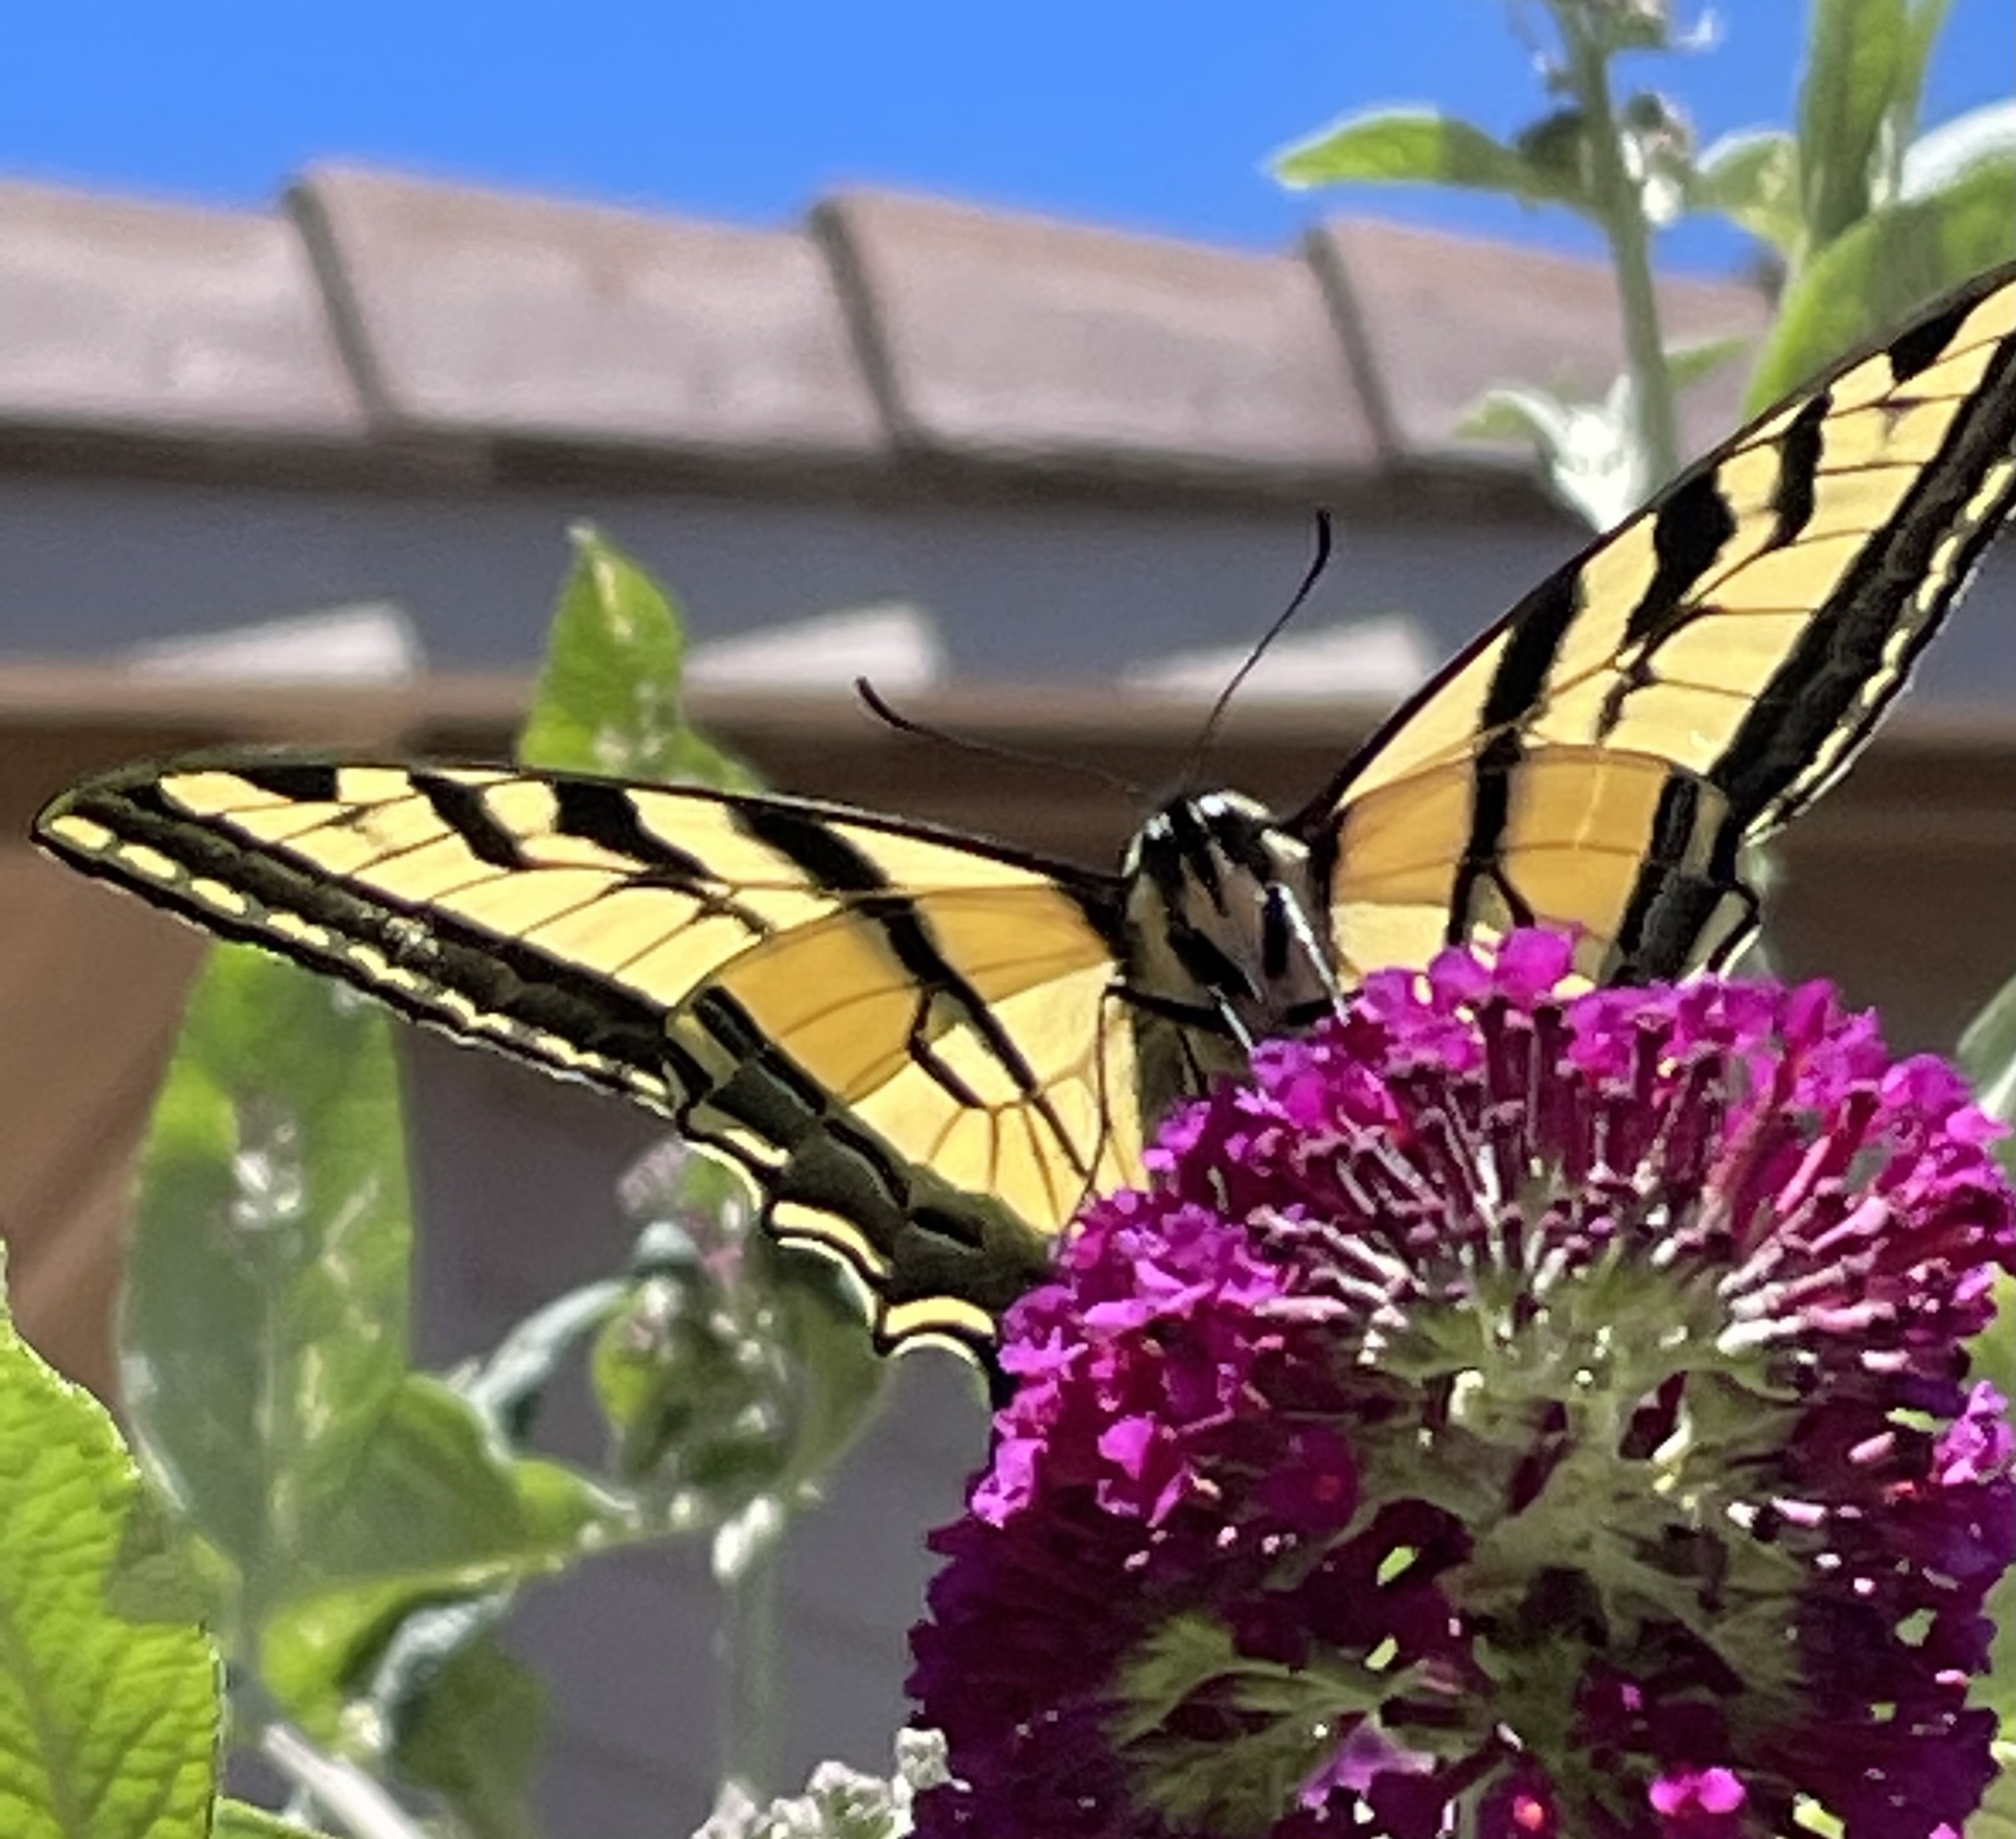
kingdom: Animalia
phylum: Arthropoda
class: Insecta
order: Lepidoptera
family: Papilionidae
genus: Papilio
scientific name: Papilio rutulus
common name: Western tiger swallowtail
